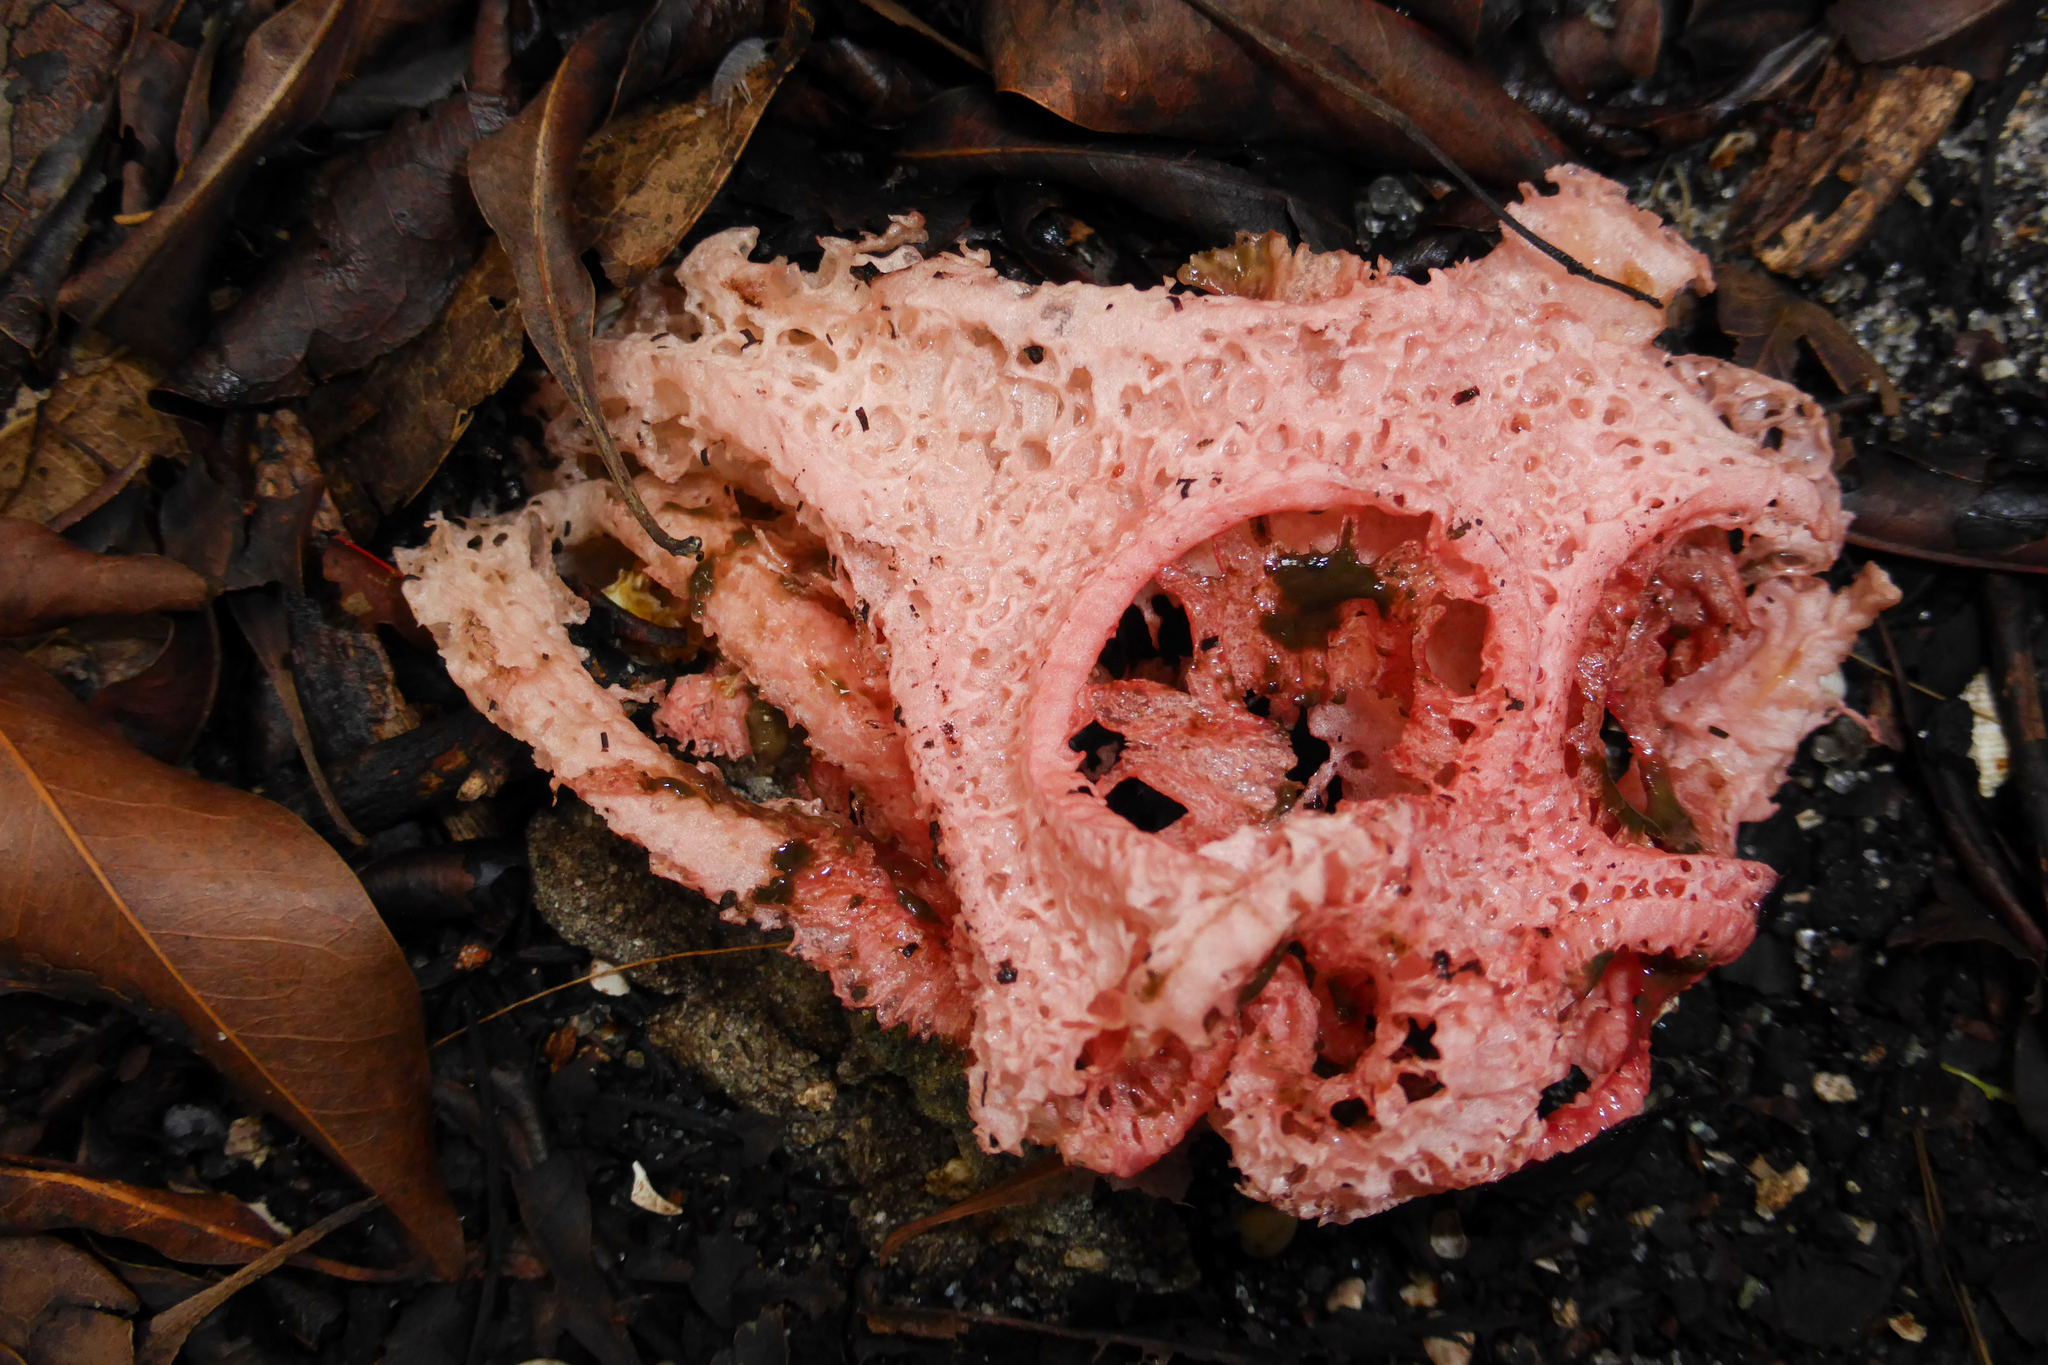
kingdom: Fungi
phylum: Basidiomycota
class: Agaricomycetes
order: Phallales
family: Phallaceae
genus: Clathrus
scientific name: Clathrus crispatus
